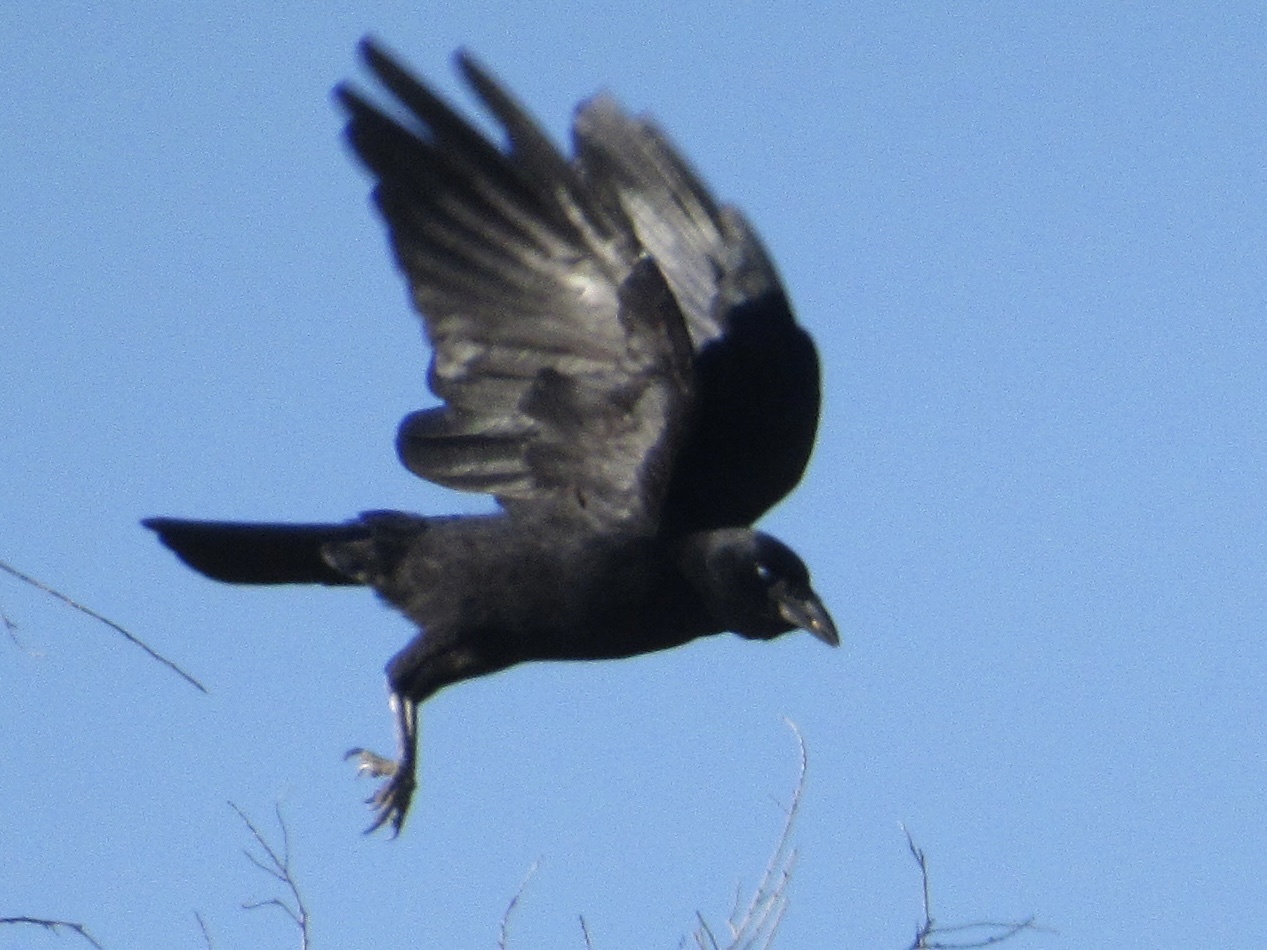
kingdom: Animalia
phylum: Chordata
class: Aves
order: Passeriformes
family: Corvidae
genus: Corvus
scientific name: Corvus brachyrhynchos
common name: American crow
